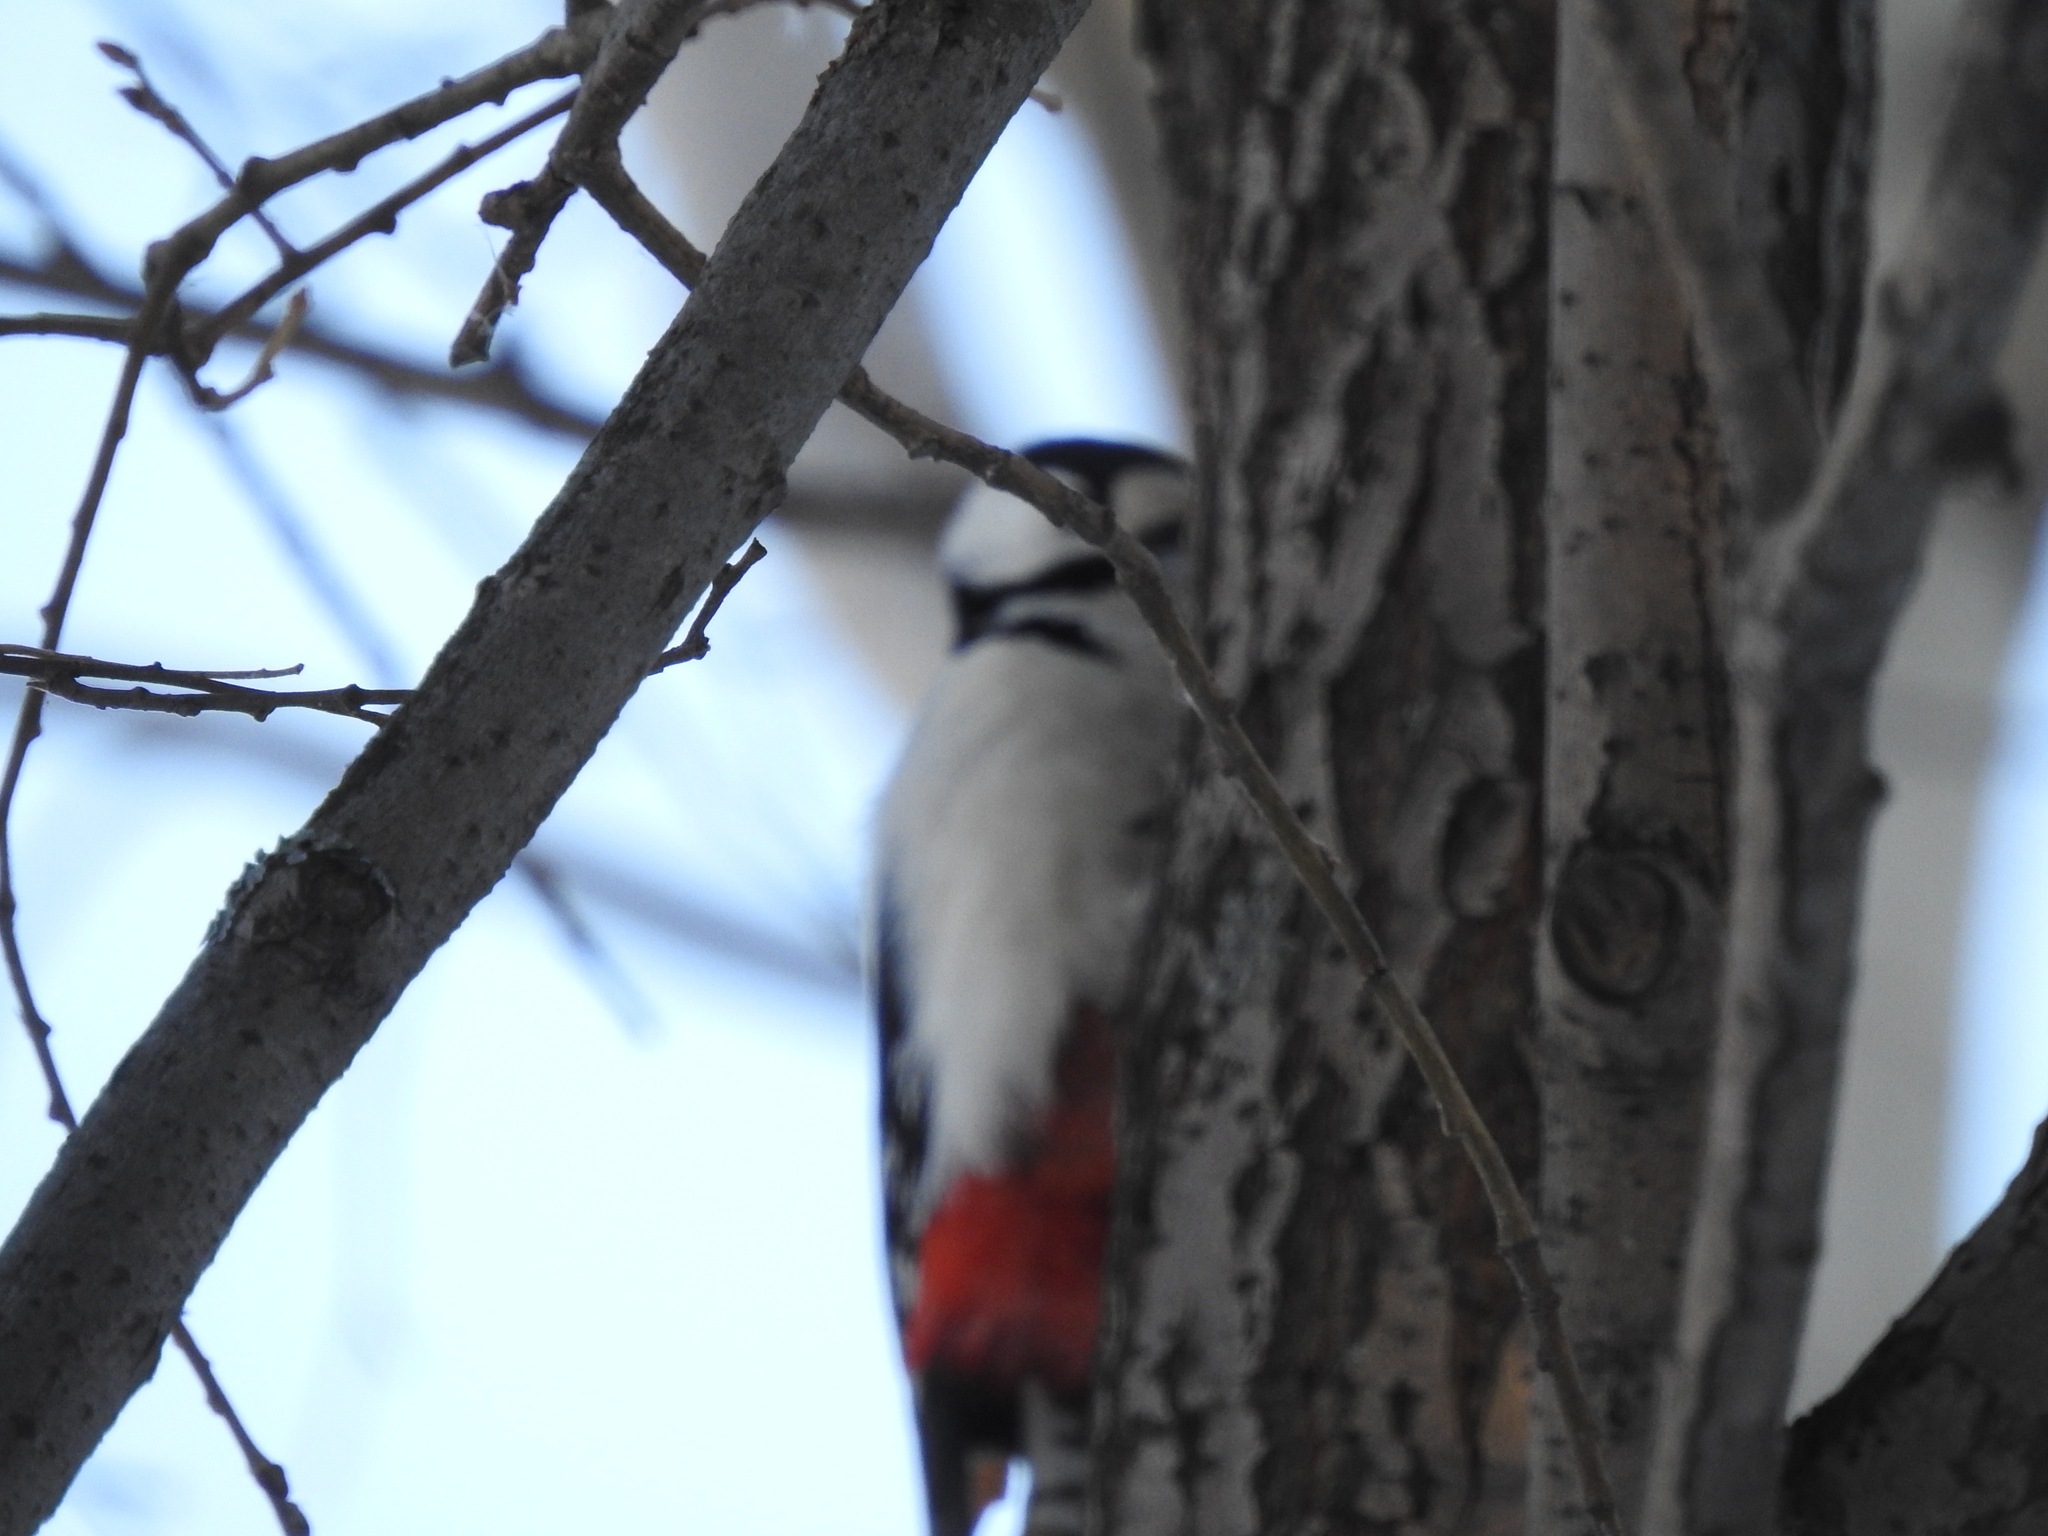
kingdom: Animalia
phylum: Chordata
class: Aves
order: Piciformes
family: Picidae
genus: Dendrocopos
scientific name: Dendrocopos major
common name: Great spotted woodpecker
